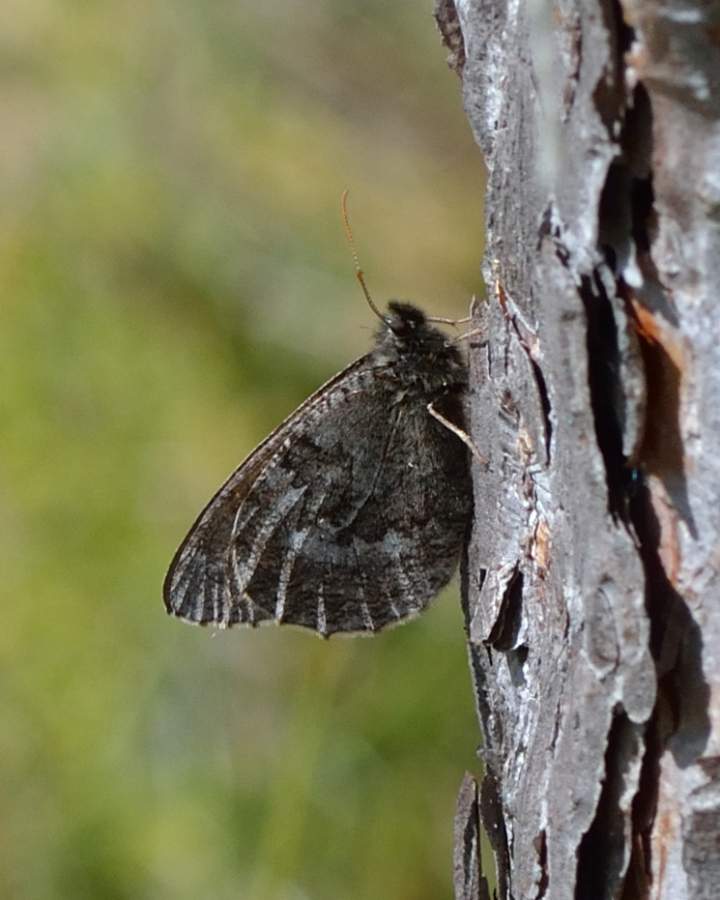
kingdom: Animalia
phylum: Arthropoda
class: Insecta
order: Lepidoptera
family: Nymphalidae
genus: Oeneis
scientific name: Oeneis jutta
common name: Baltic grayling
